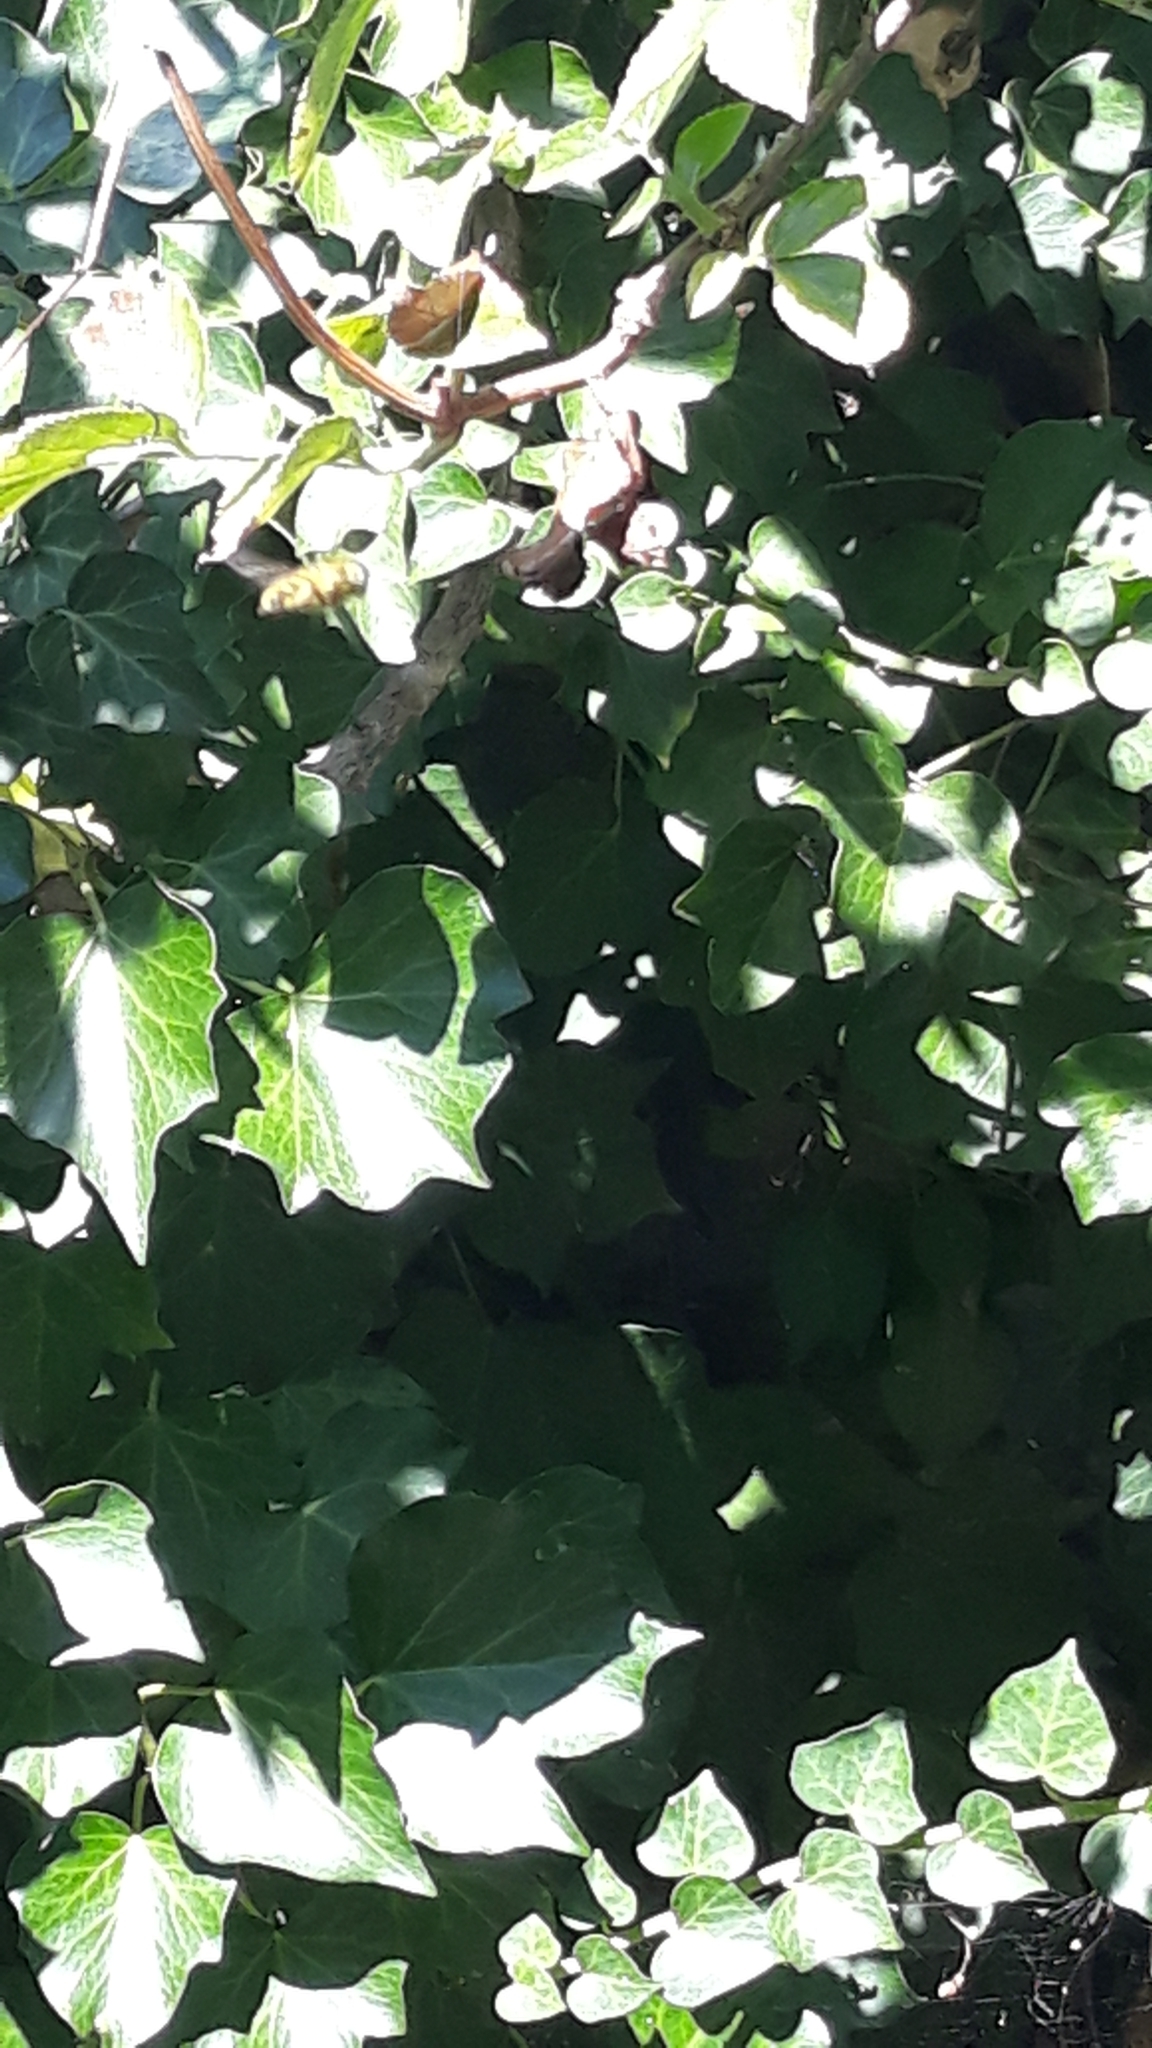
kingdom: Animalia
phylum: Arthropoda
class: Insecta
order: Diptera
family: Syrphidae
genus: Myathropa
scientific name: Myathropa florea
